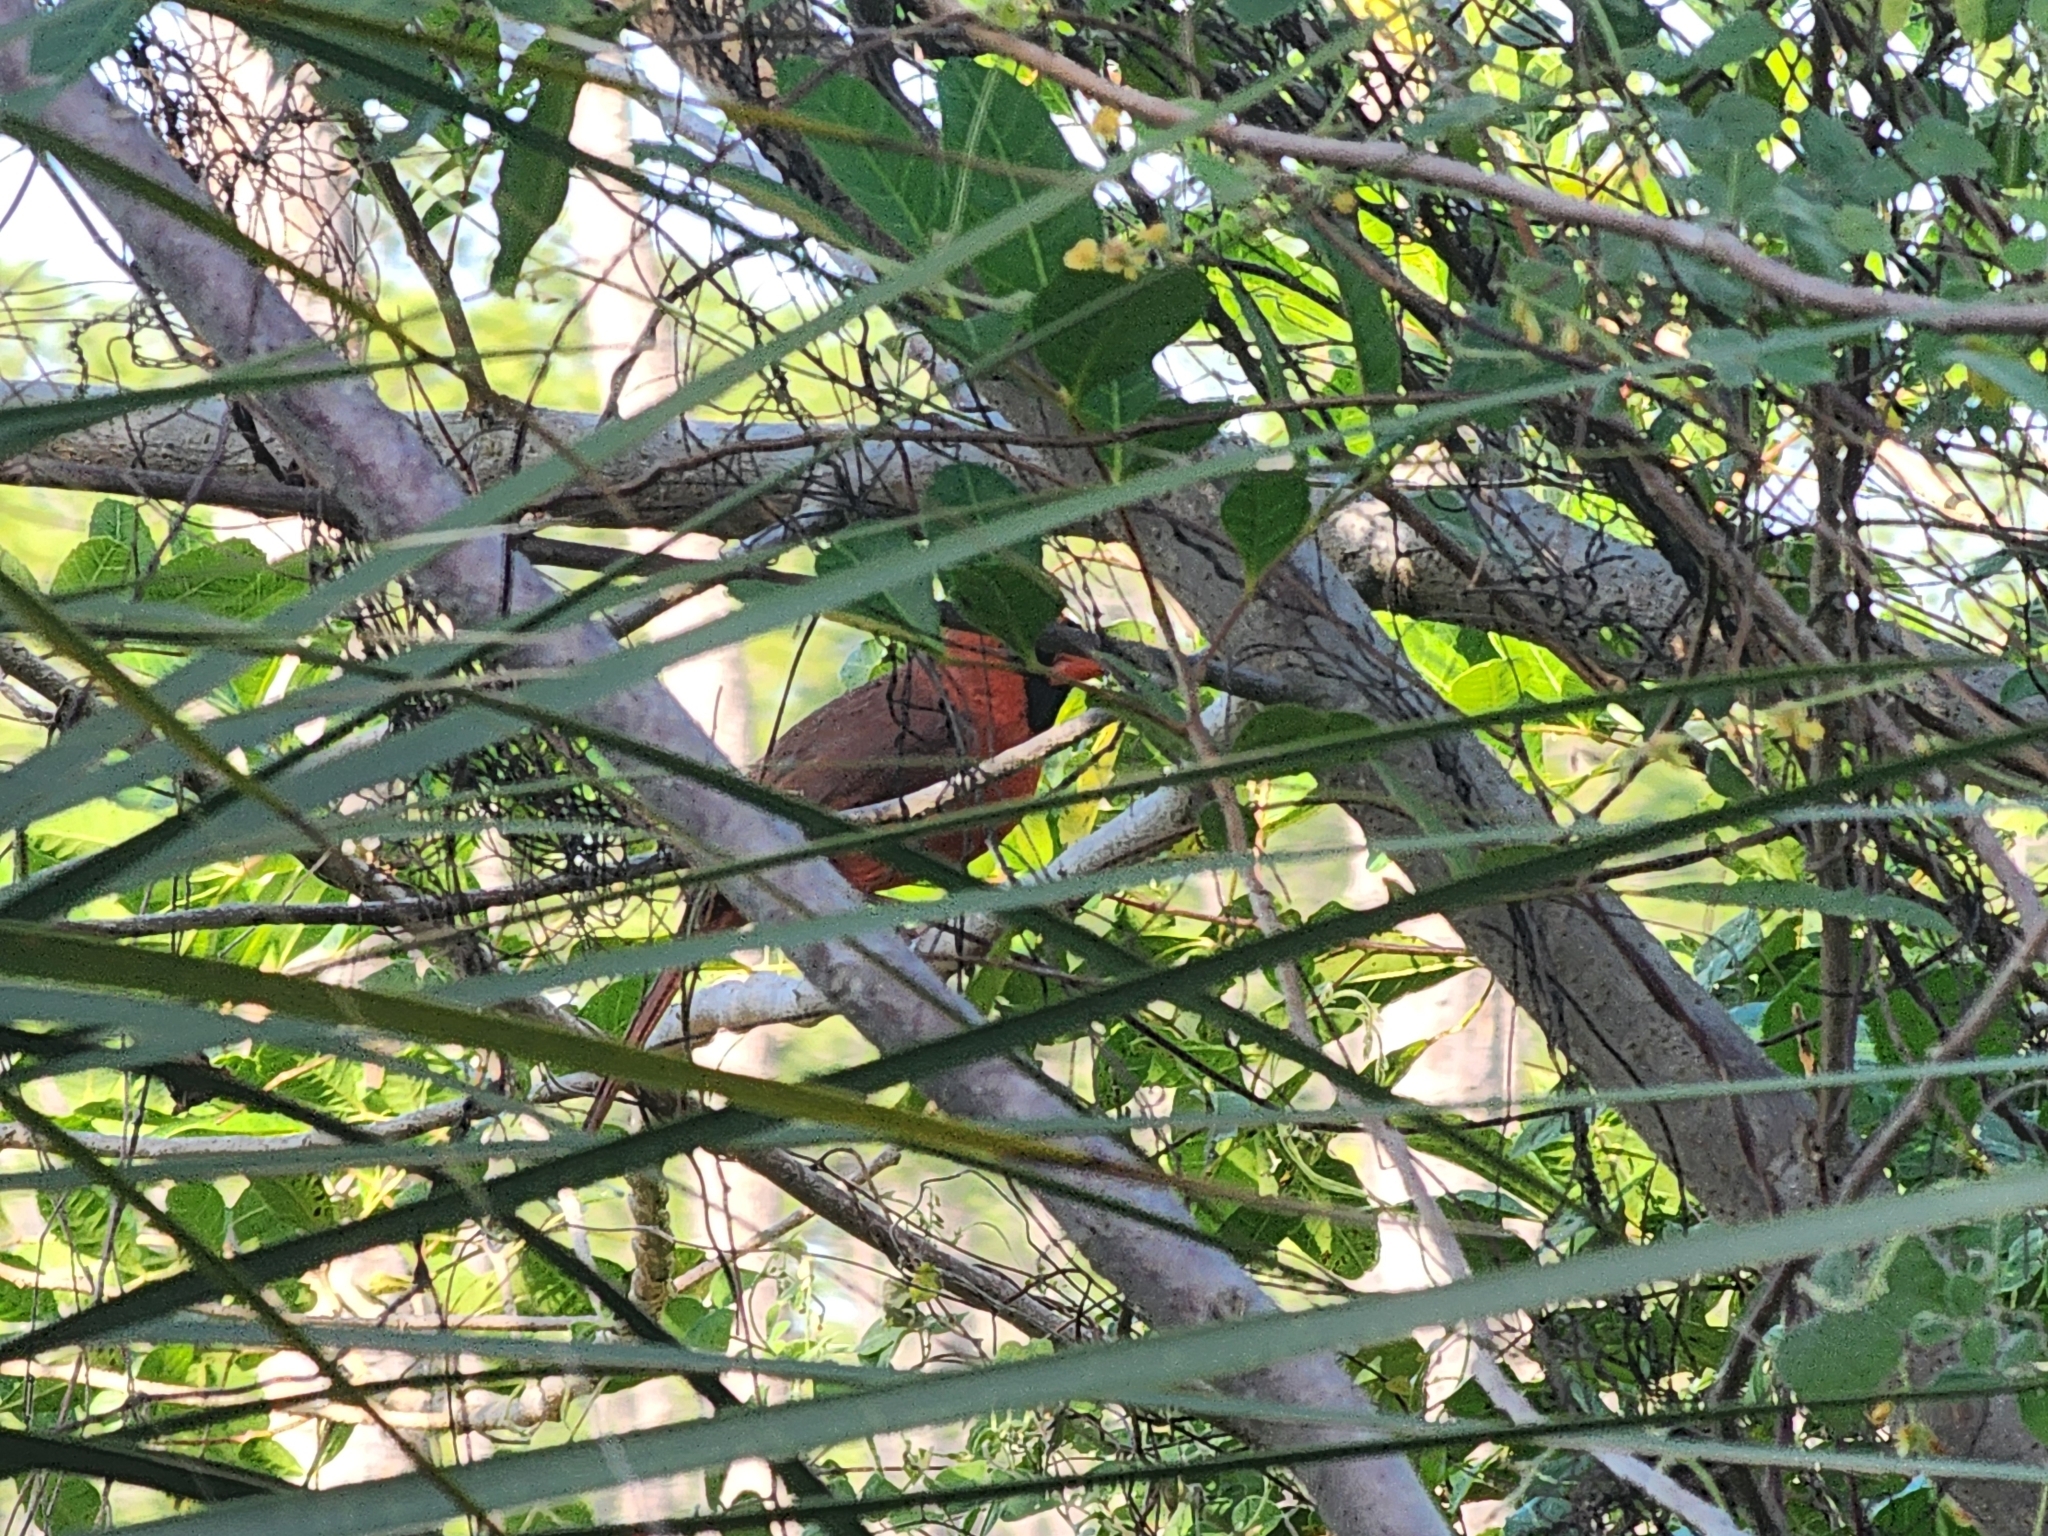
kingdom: Animalia
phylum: Chordata
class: Aves
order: Passeriformes
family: Cardinalidae
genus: Cardinalis
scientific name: Cardinalis cardinalis
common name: Northern cardinal
